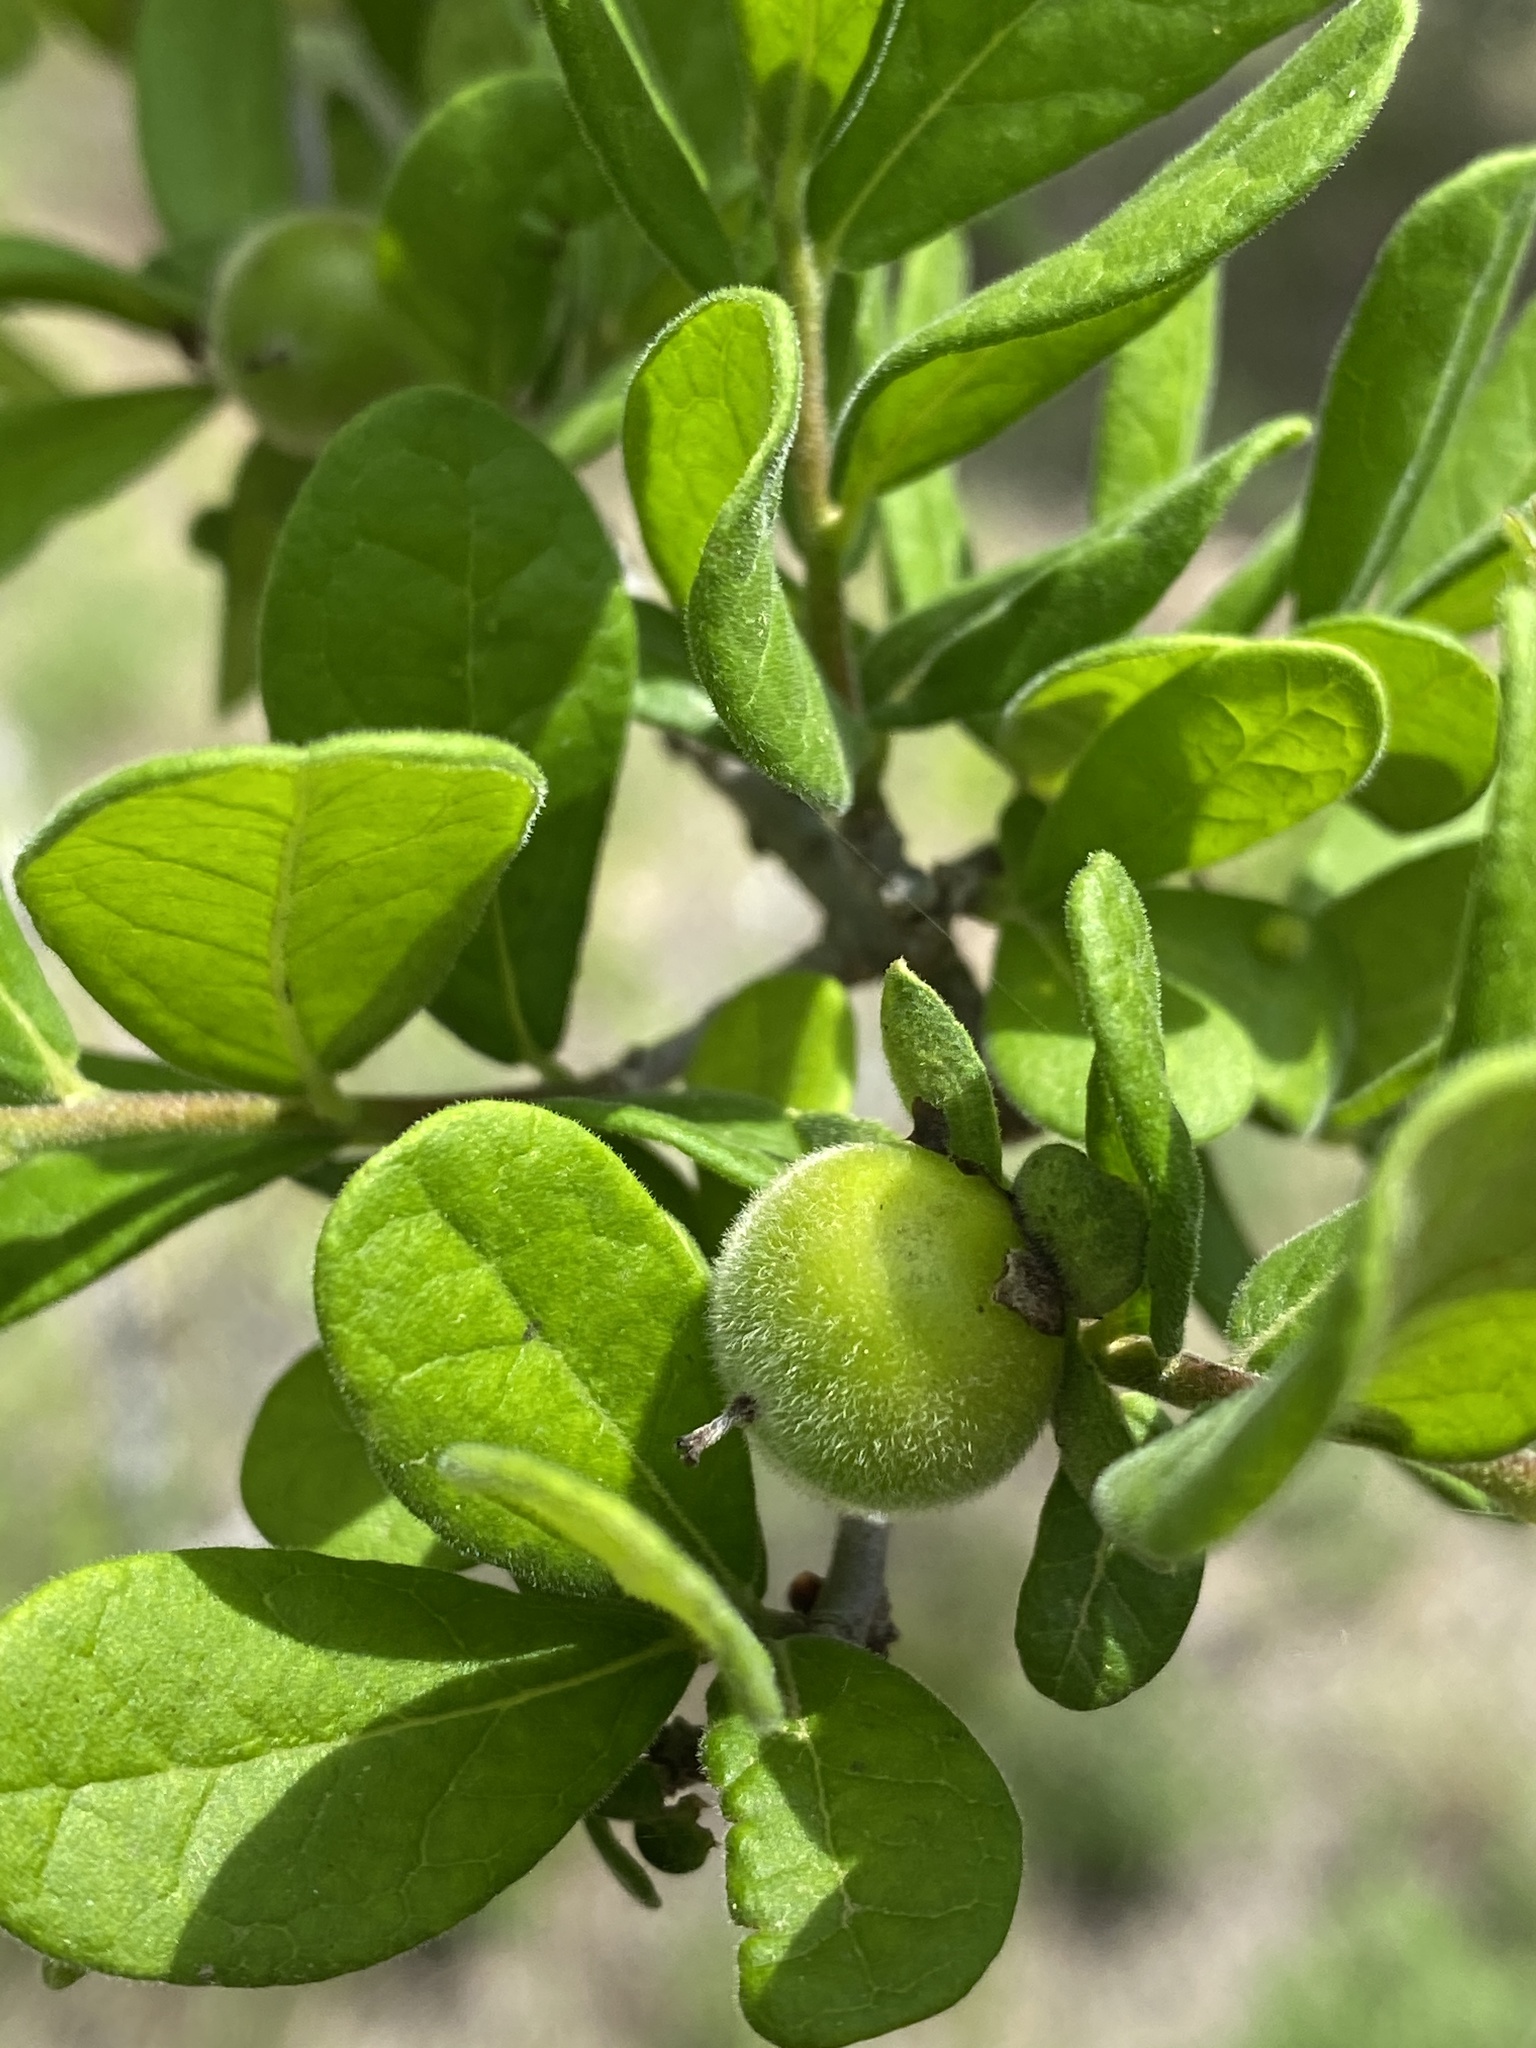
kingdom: Plantae
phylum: Tracheophyta
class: Magnoliopsida
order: Ericales
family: Ebenaceae
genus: Diospyros
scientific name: Diospyros texana
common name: Texas persimmon
